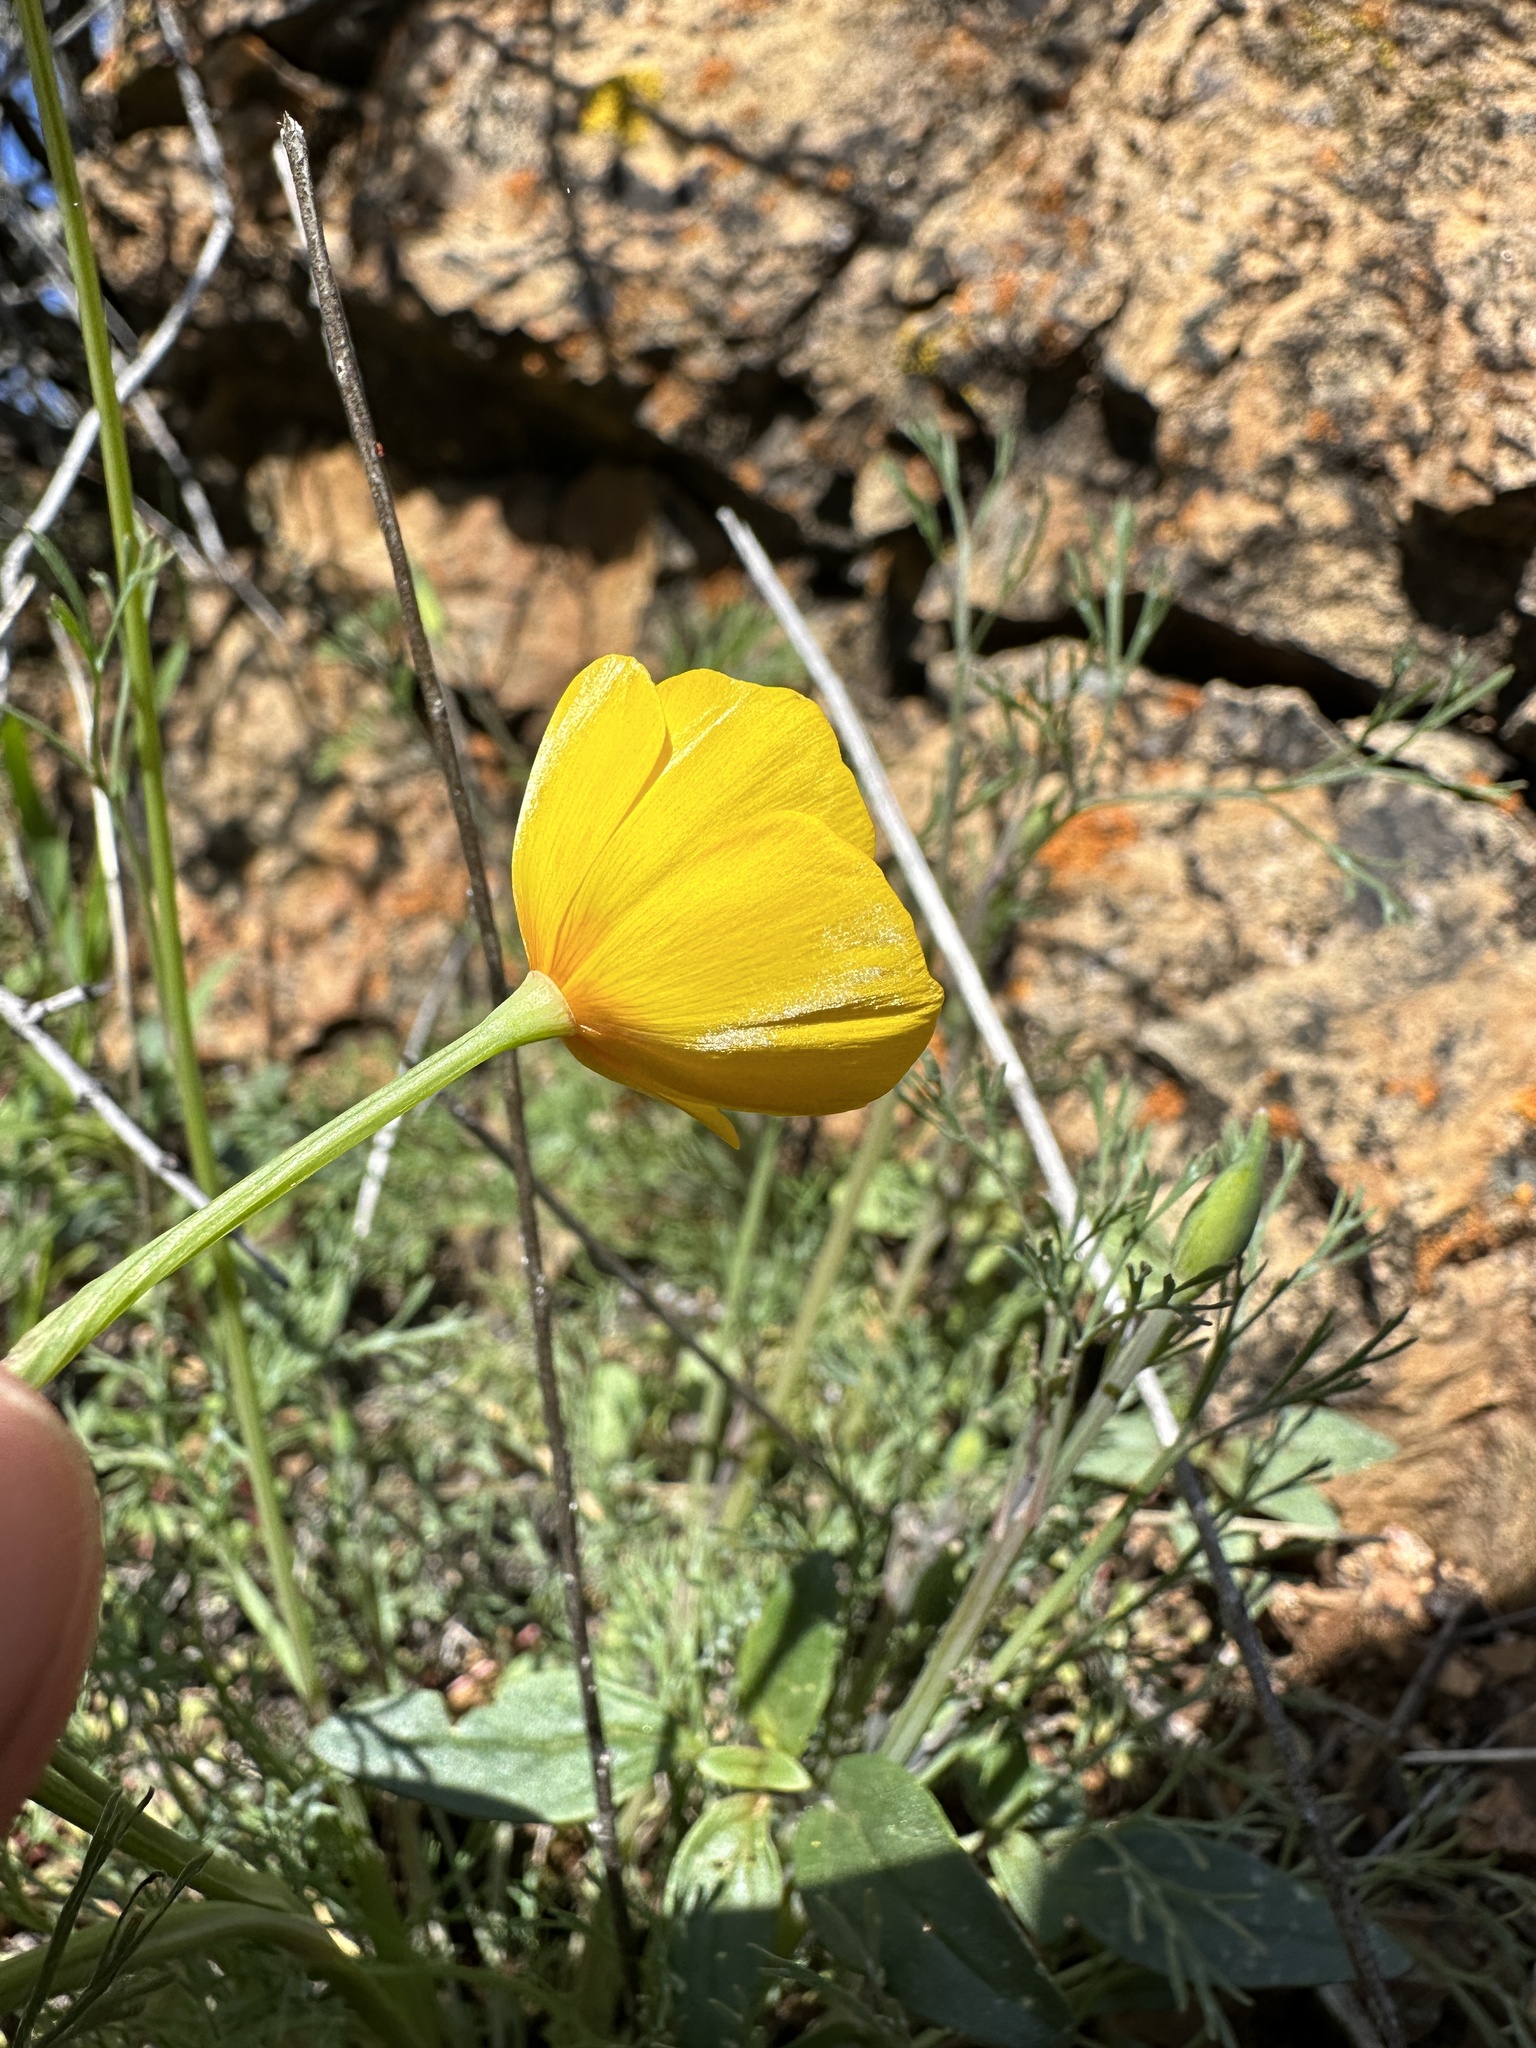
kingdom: Plantae
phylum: Tracheophyta
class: Magnoliopsida
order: Ranunculales
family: Papaveraceae
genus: Eschscholzia
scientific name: Eschscholzia caespitosa
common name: Tufted california-poppy
